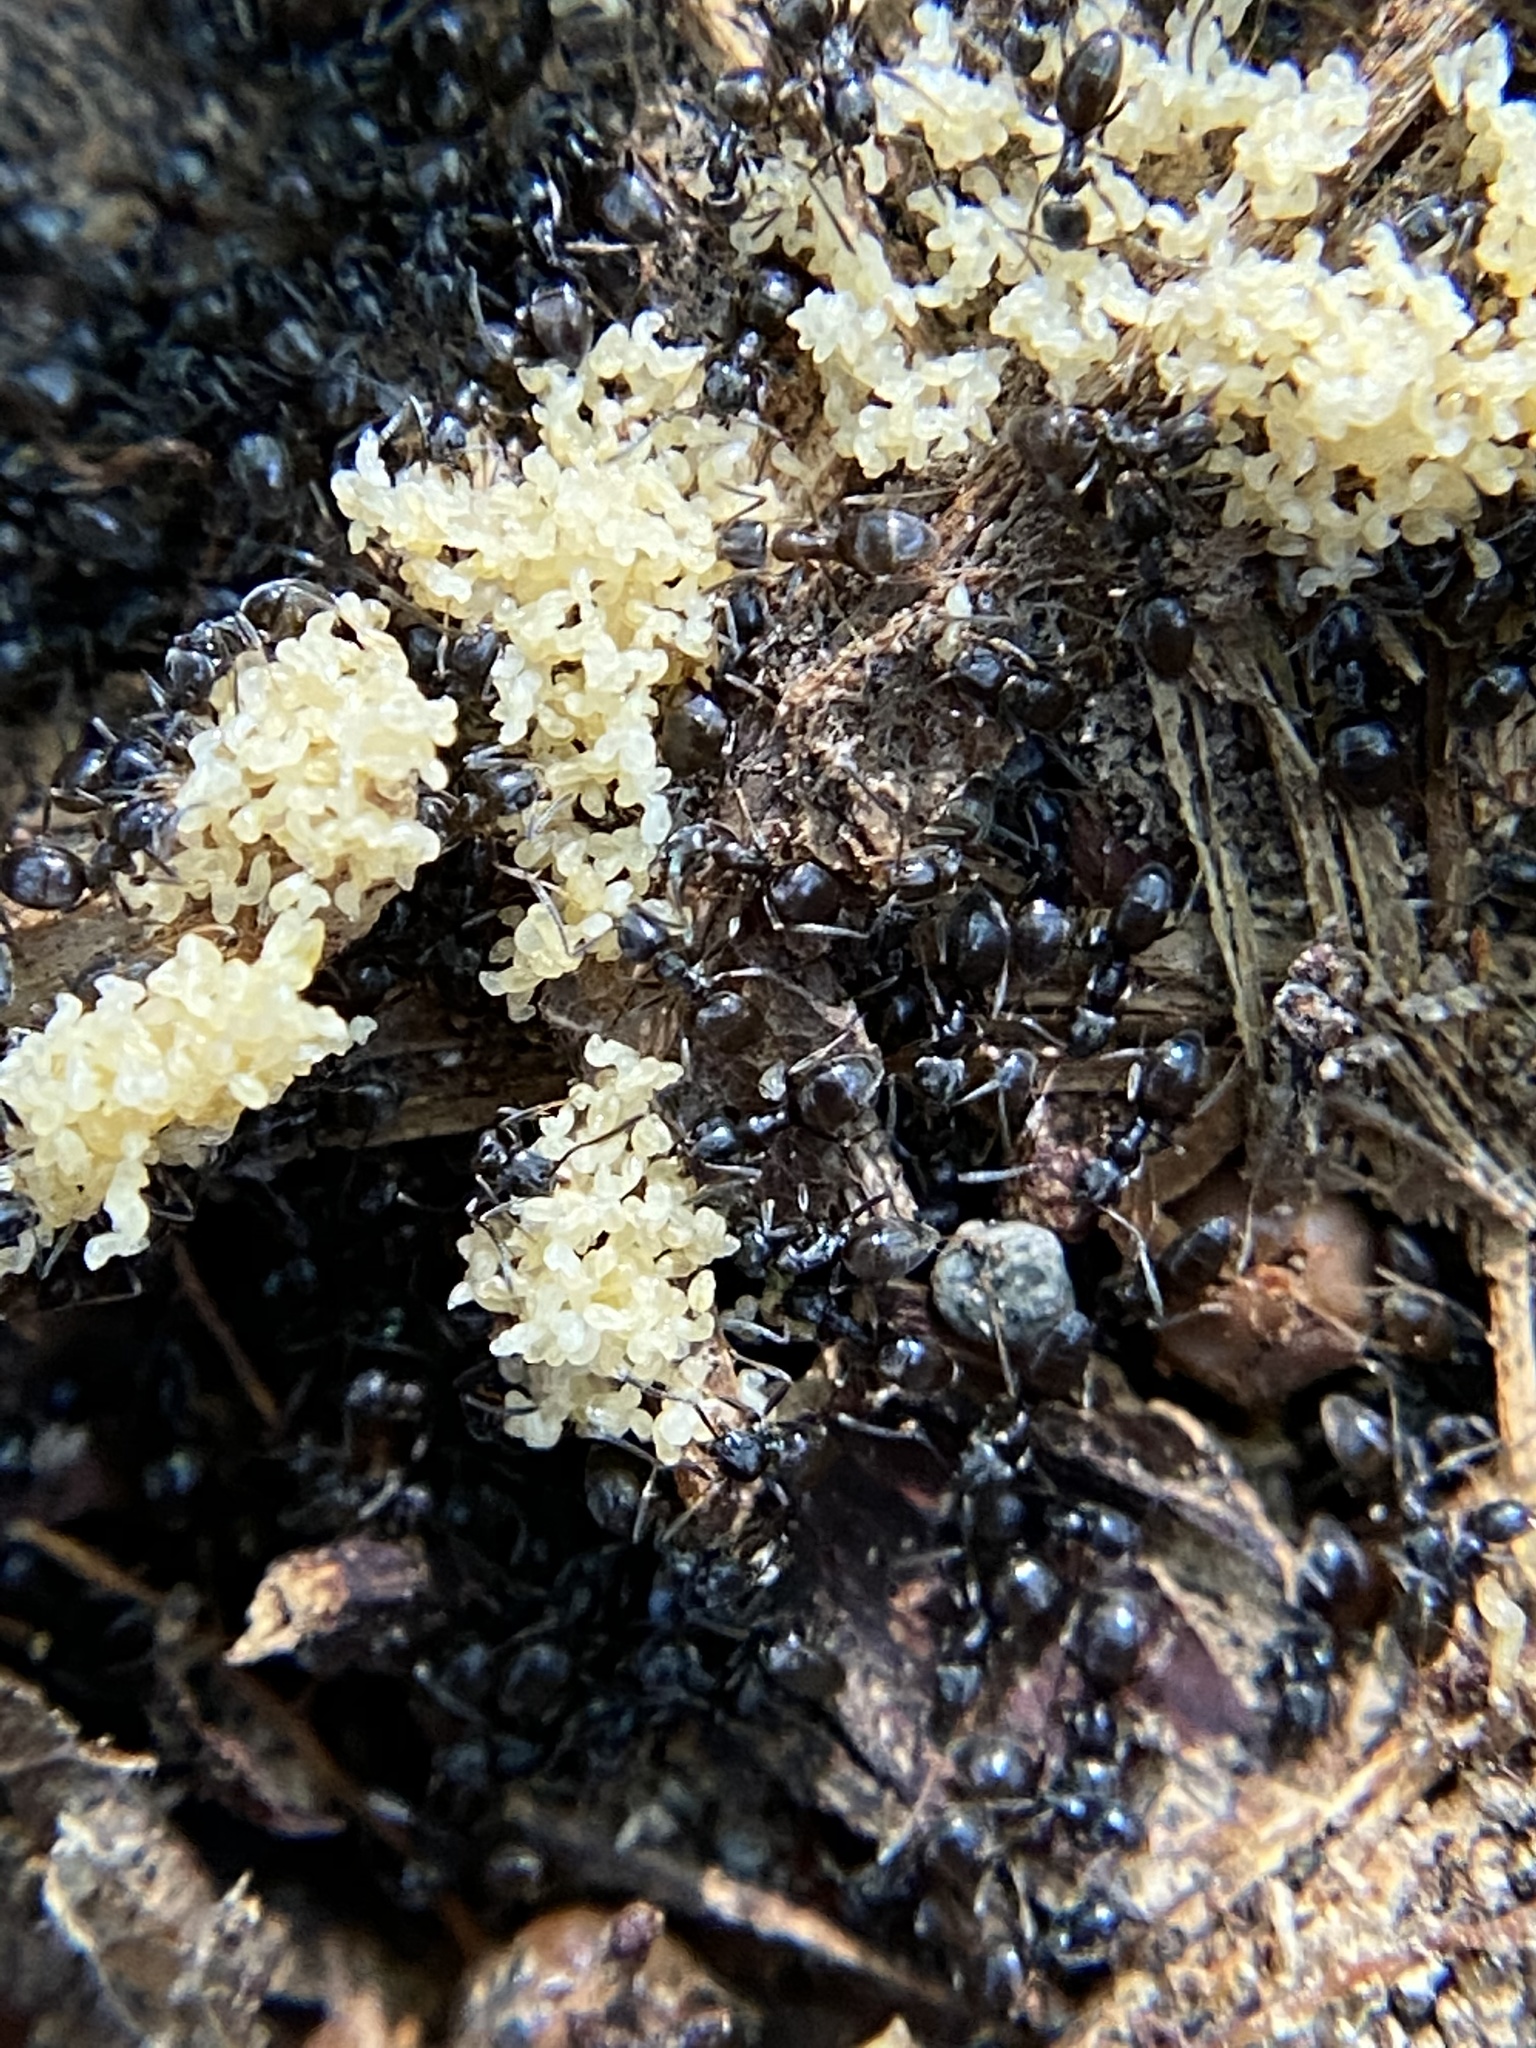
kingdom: Animalia
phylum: Arthropoda
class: Insecta
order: Hymenoptera
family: Formicidae
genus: Tapinoma
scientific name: Tapinoma sessile
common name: Odorous house ant
